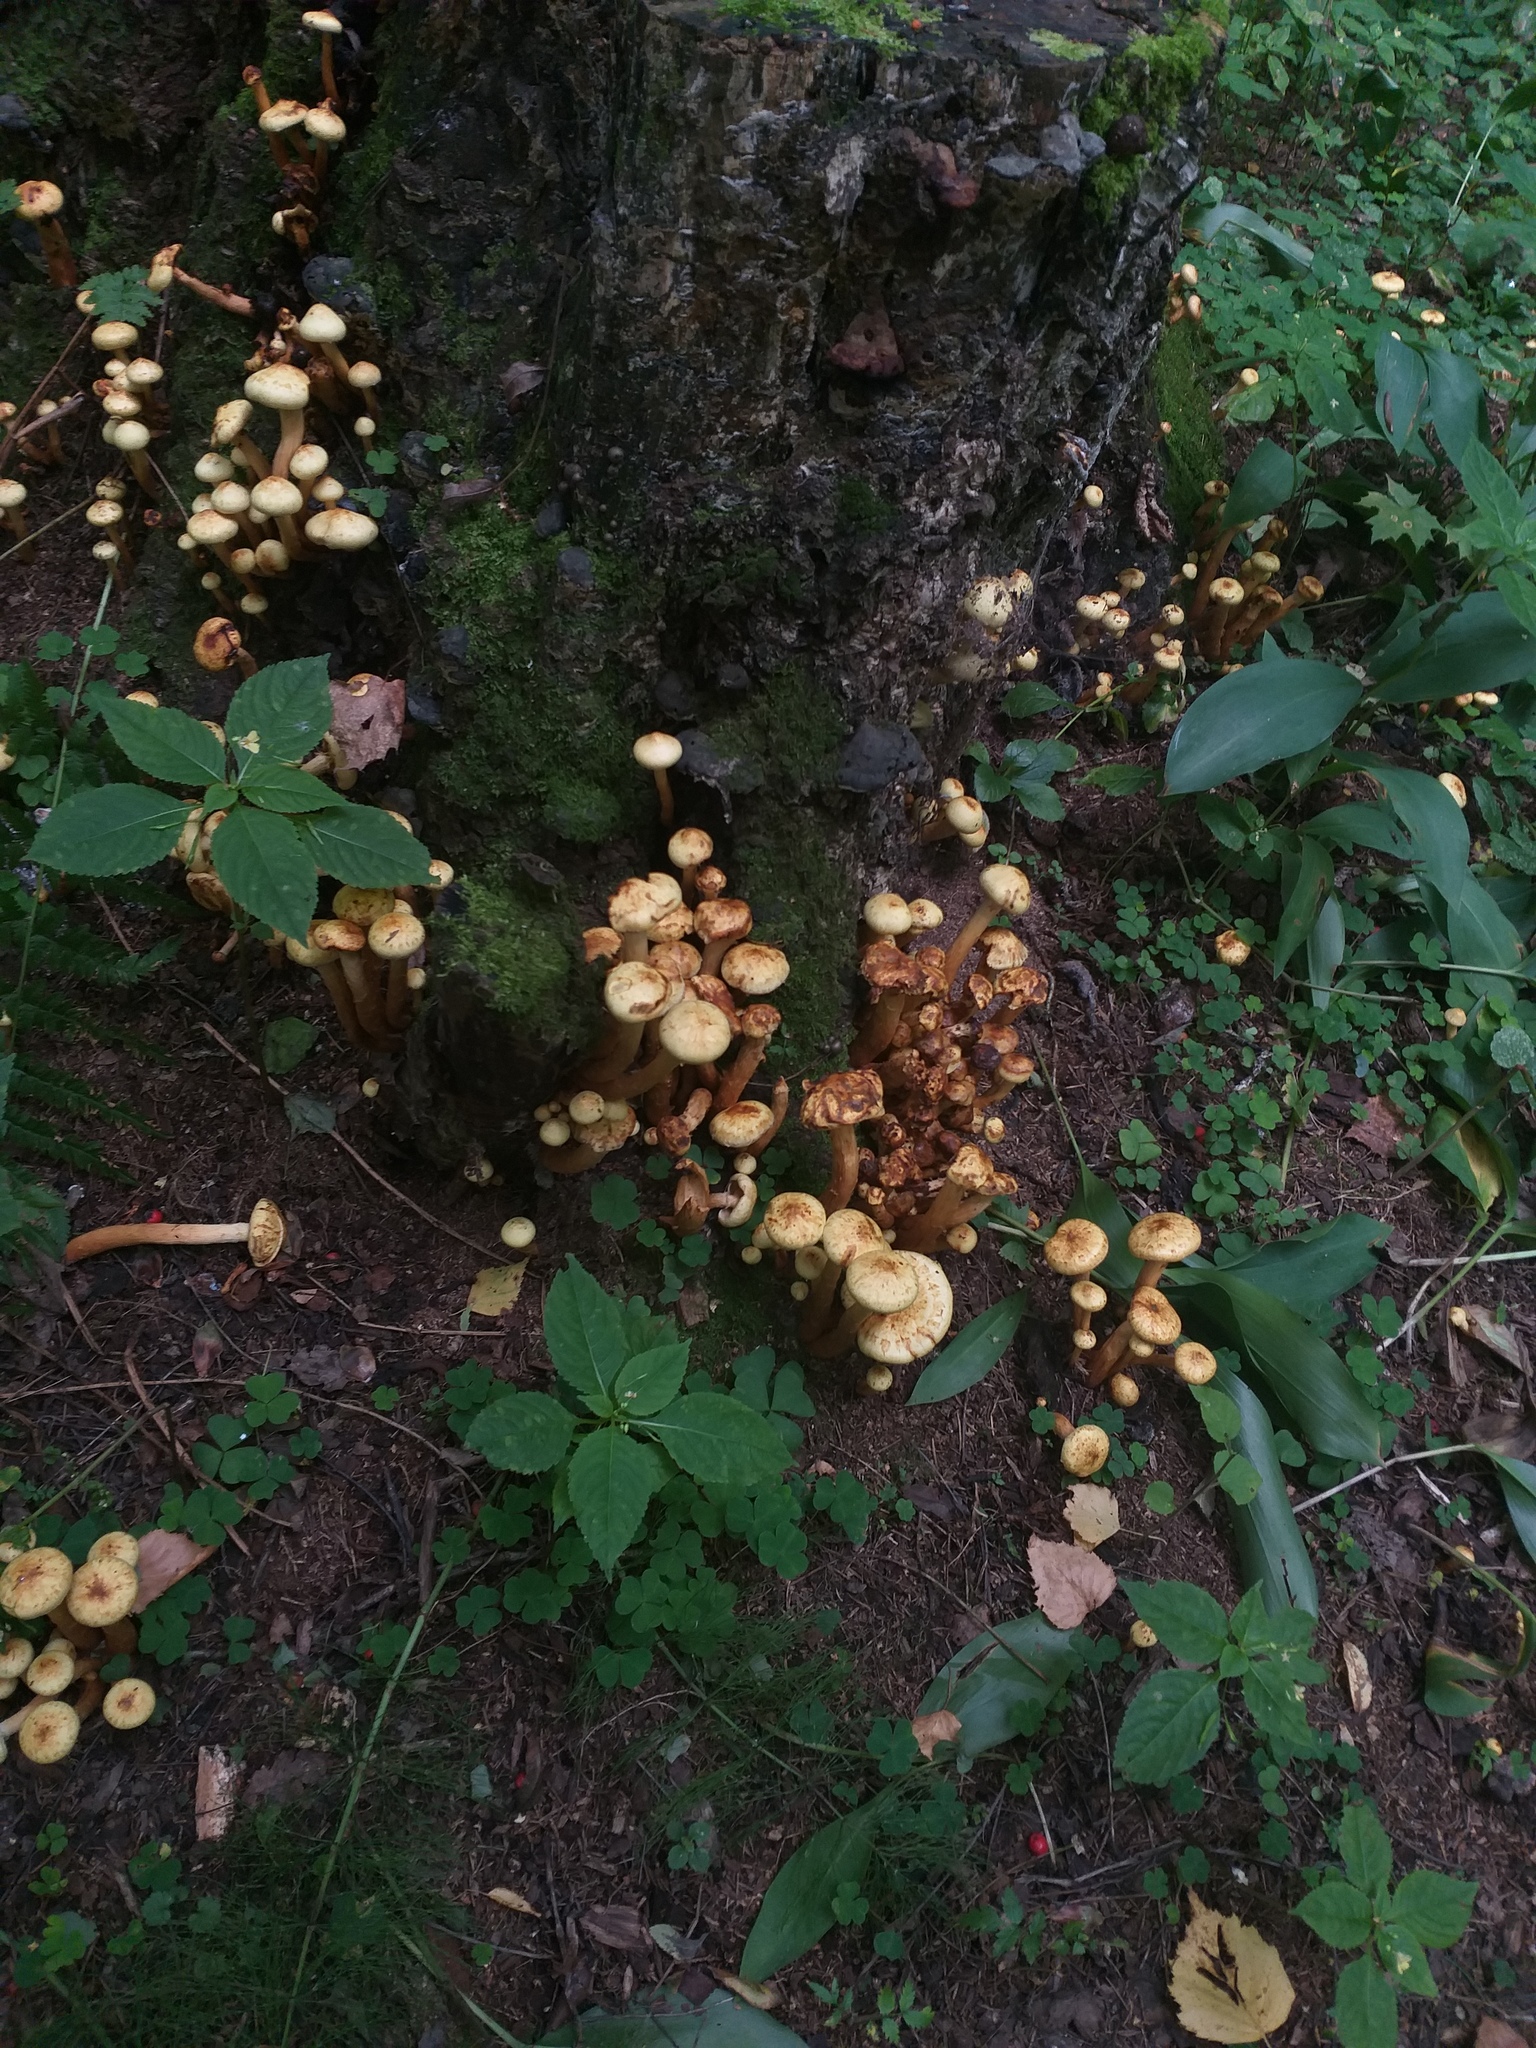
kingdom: Fungi
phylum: Basidiomycota
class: Agaricomycetes
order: Agaricales
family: Hymenogastraceae
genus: Flammula
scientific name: Flammula alnicola
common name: Alder scalycap
